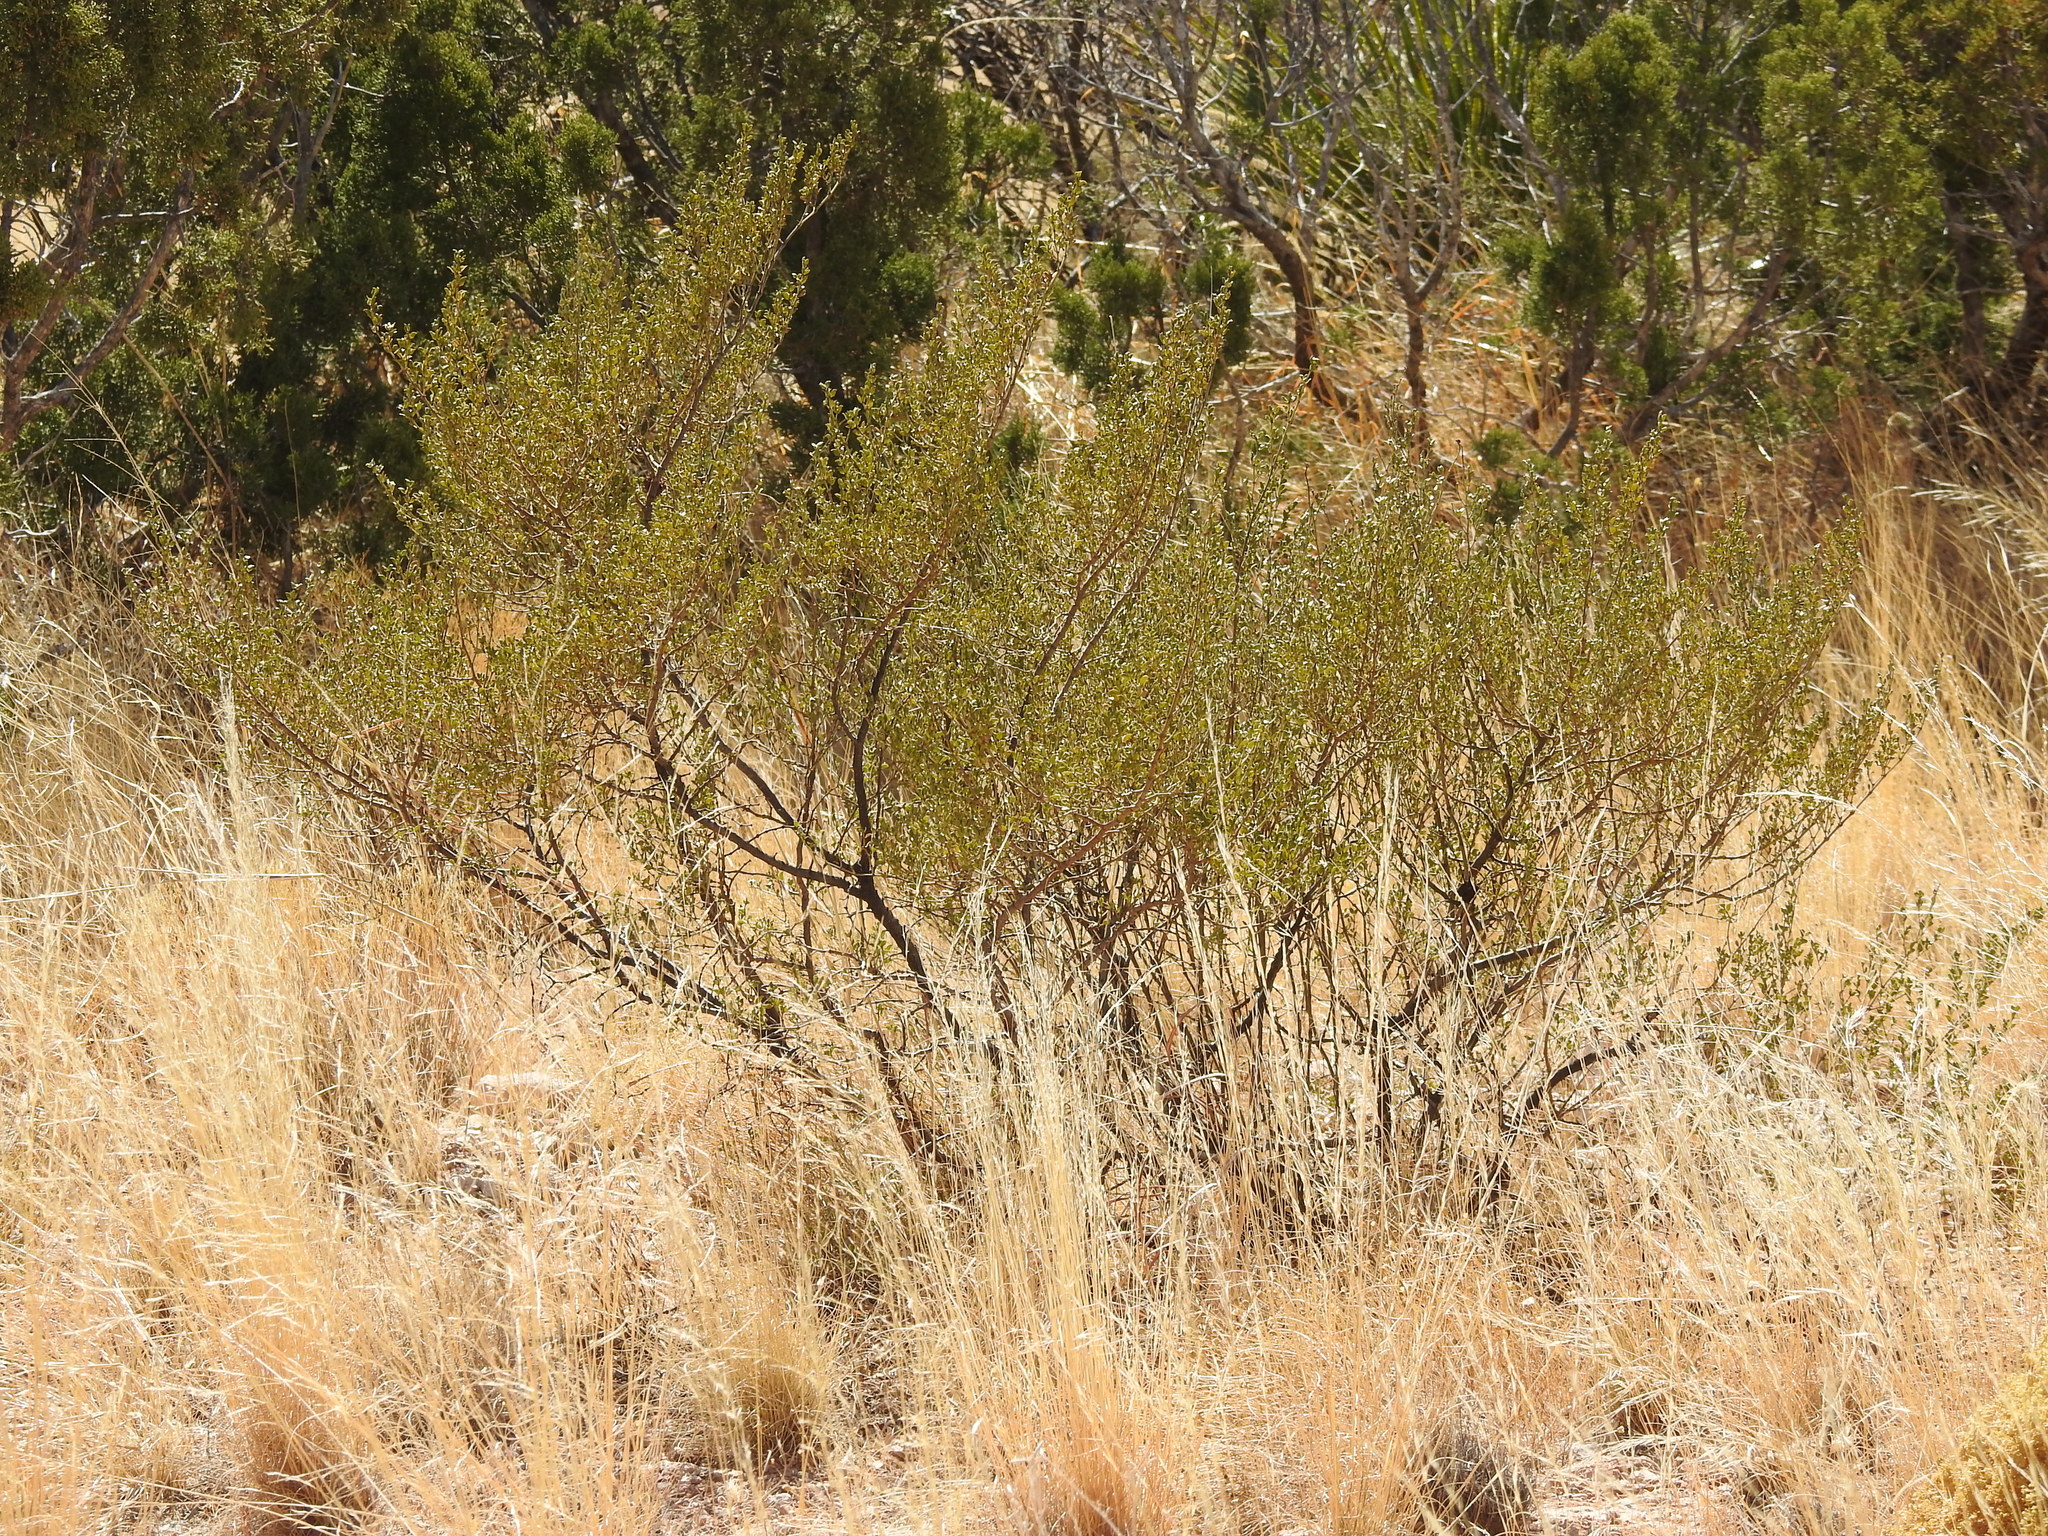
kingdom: Plantae
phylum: Tracheophyta
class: Magnoliopsida
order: Zygophyllales
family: Zygophyllaceae
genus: Larrea
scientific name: Larrea tridentata
